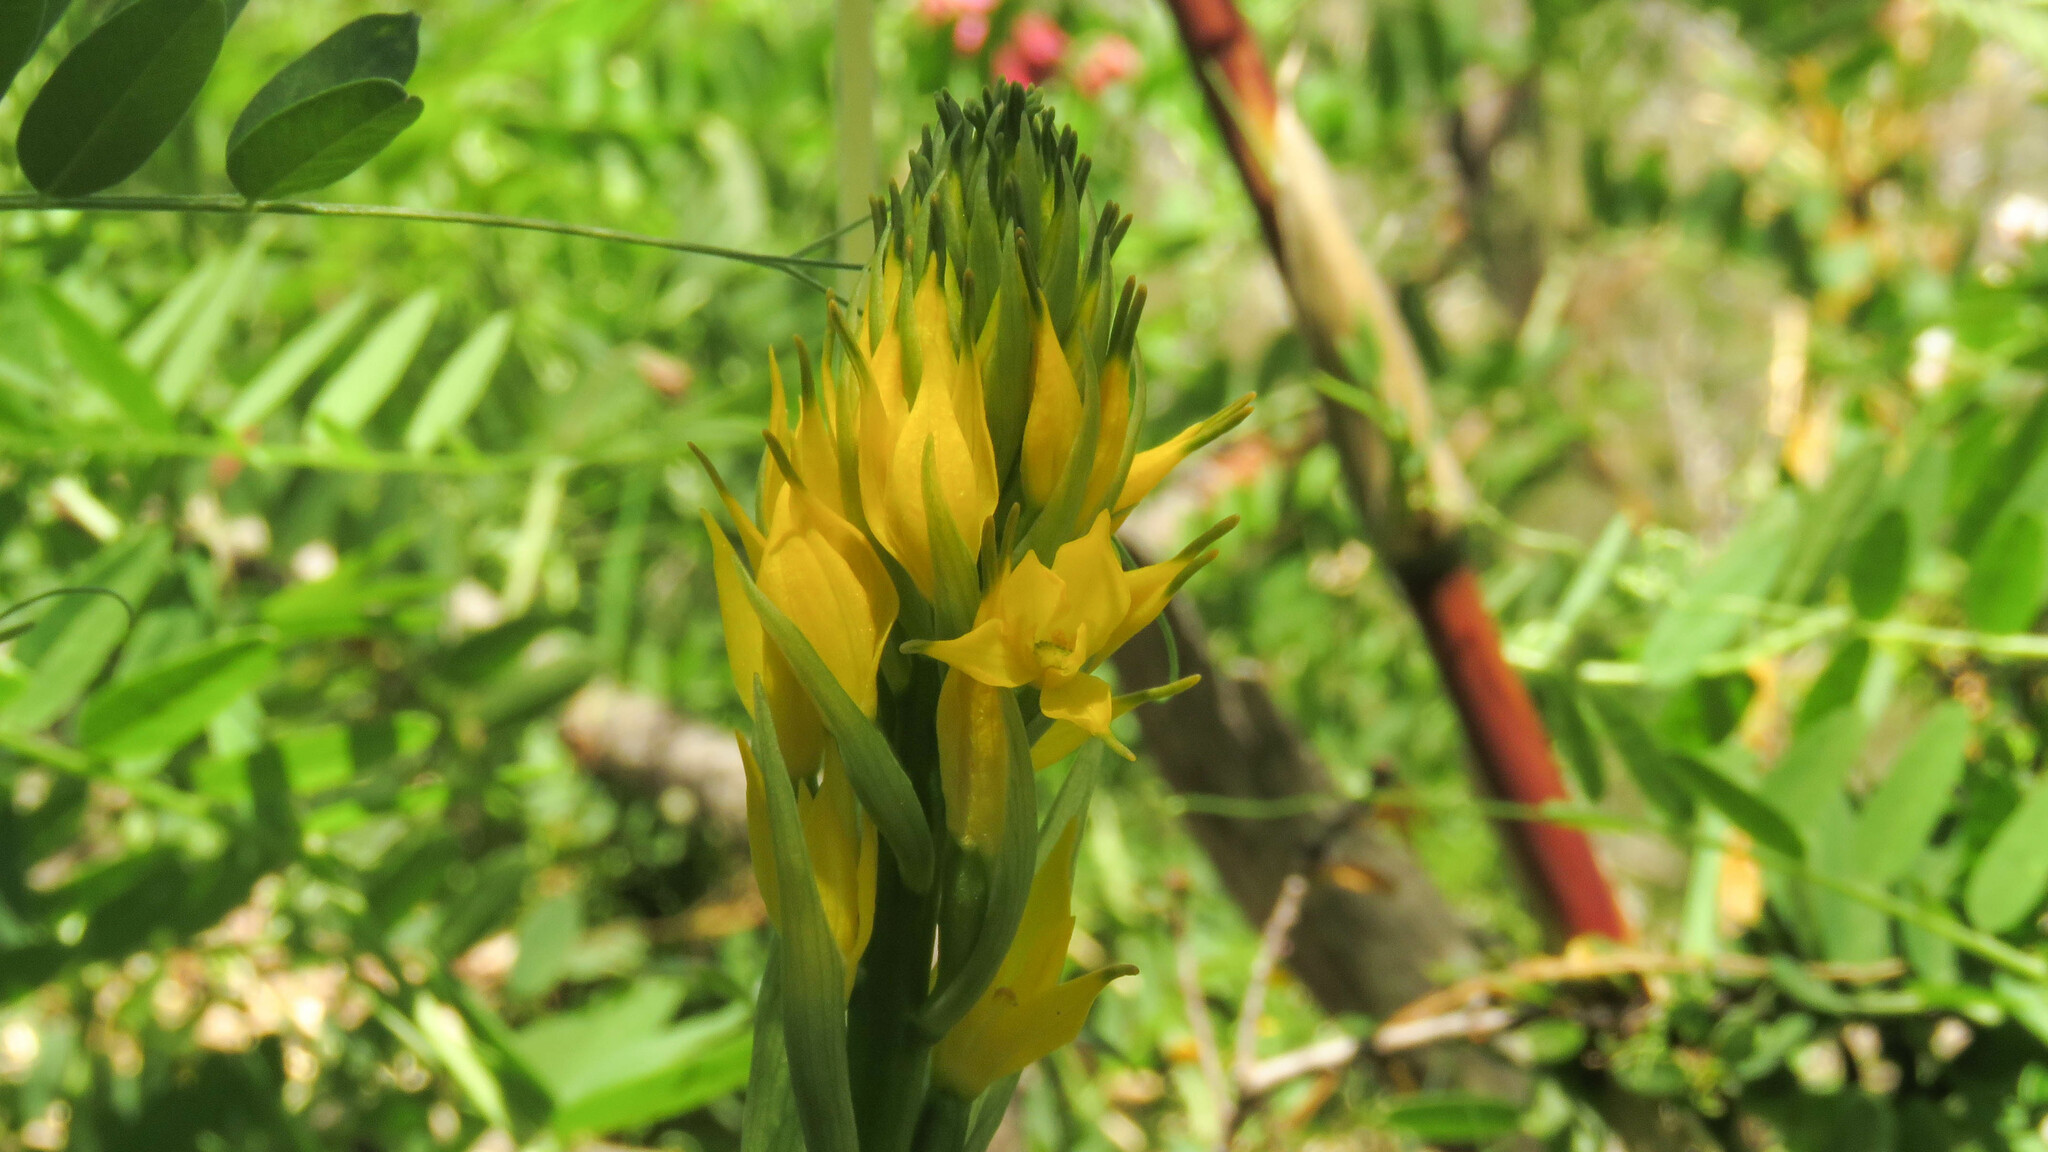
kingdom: Plantae
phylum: Tracheophyta
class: Liliopsida
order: Asparagales
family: Orchidaceae
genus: Gavilea
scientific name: Gavilea lutea
